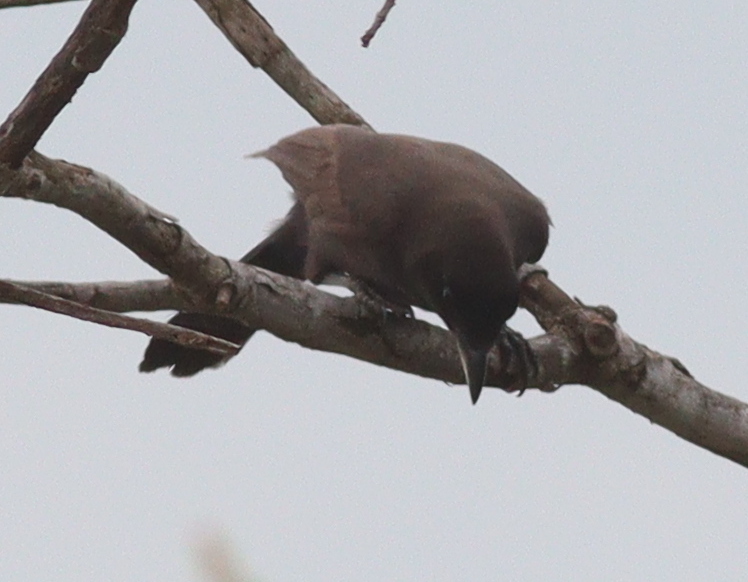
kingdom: Animalia
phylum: Chordata
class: Aves
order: Passeriformes
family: Corvidae
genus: Cyanocorax
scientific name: Cyanocorax cyanomelas
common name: Purplish jay
